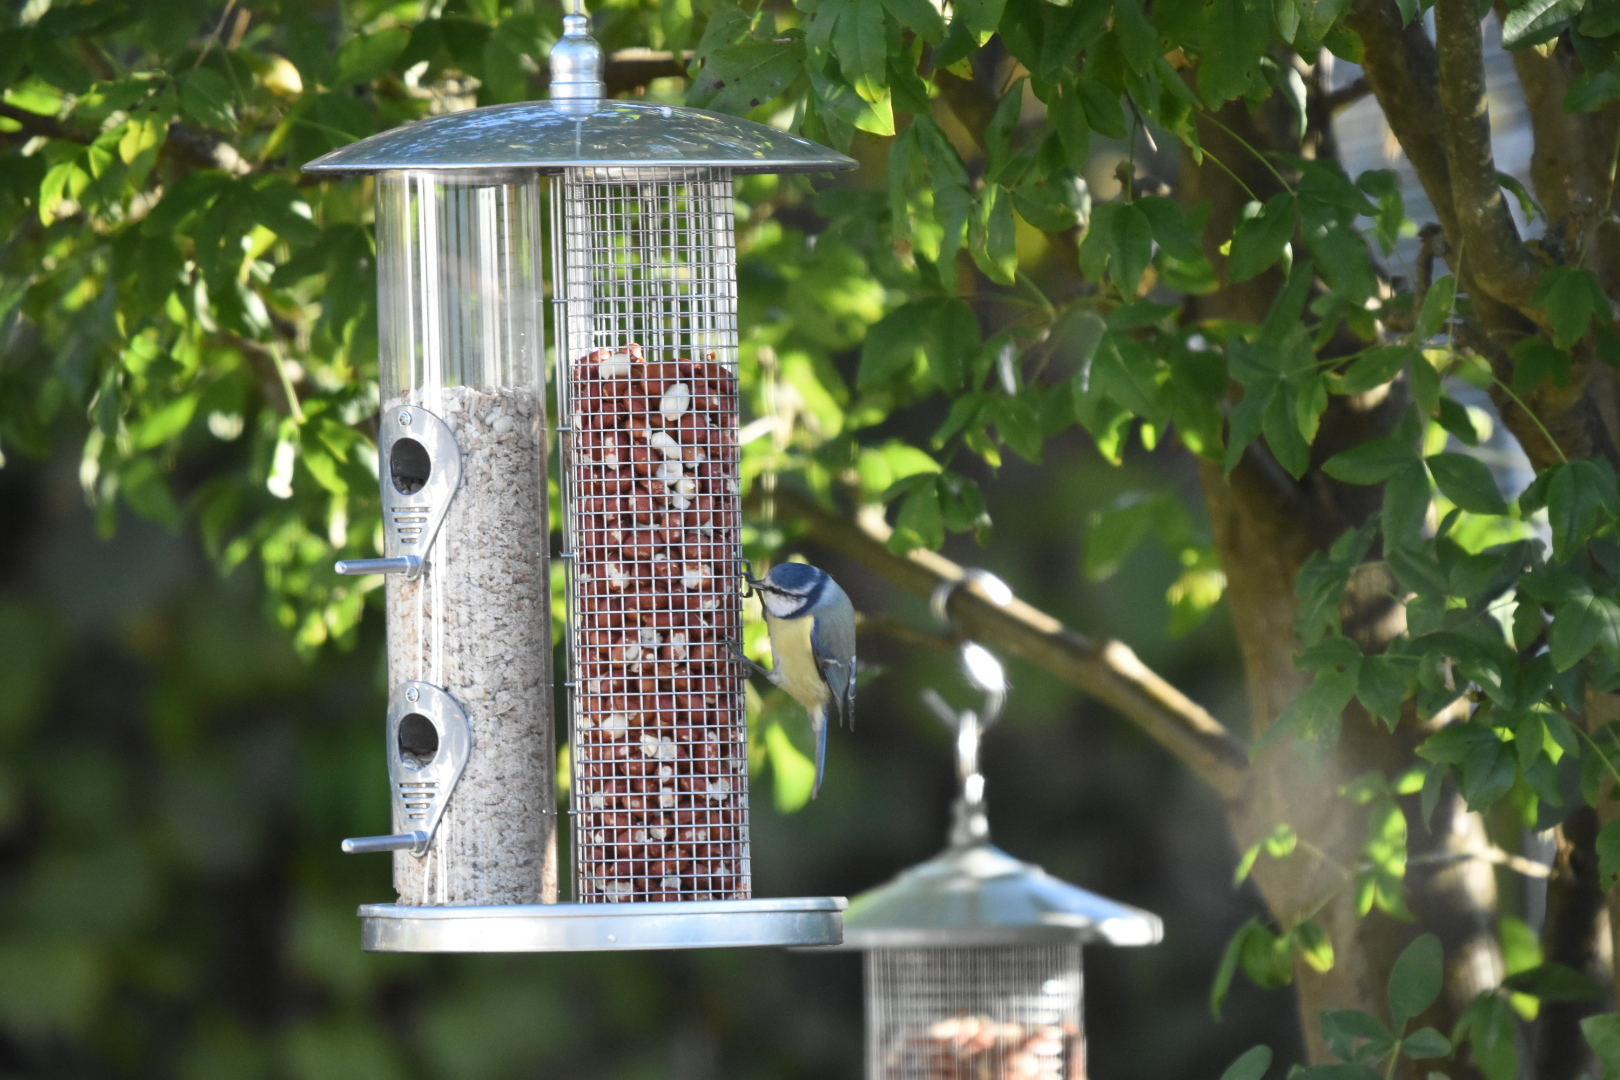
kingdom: Animalia
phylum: Chordata
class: Aves
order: Passeriformes
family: Paridae
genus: Cyanistes
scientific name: Cyanistes caeruleus
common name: Eurasian blue tit
